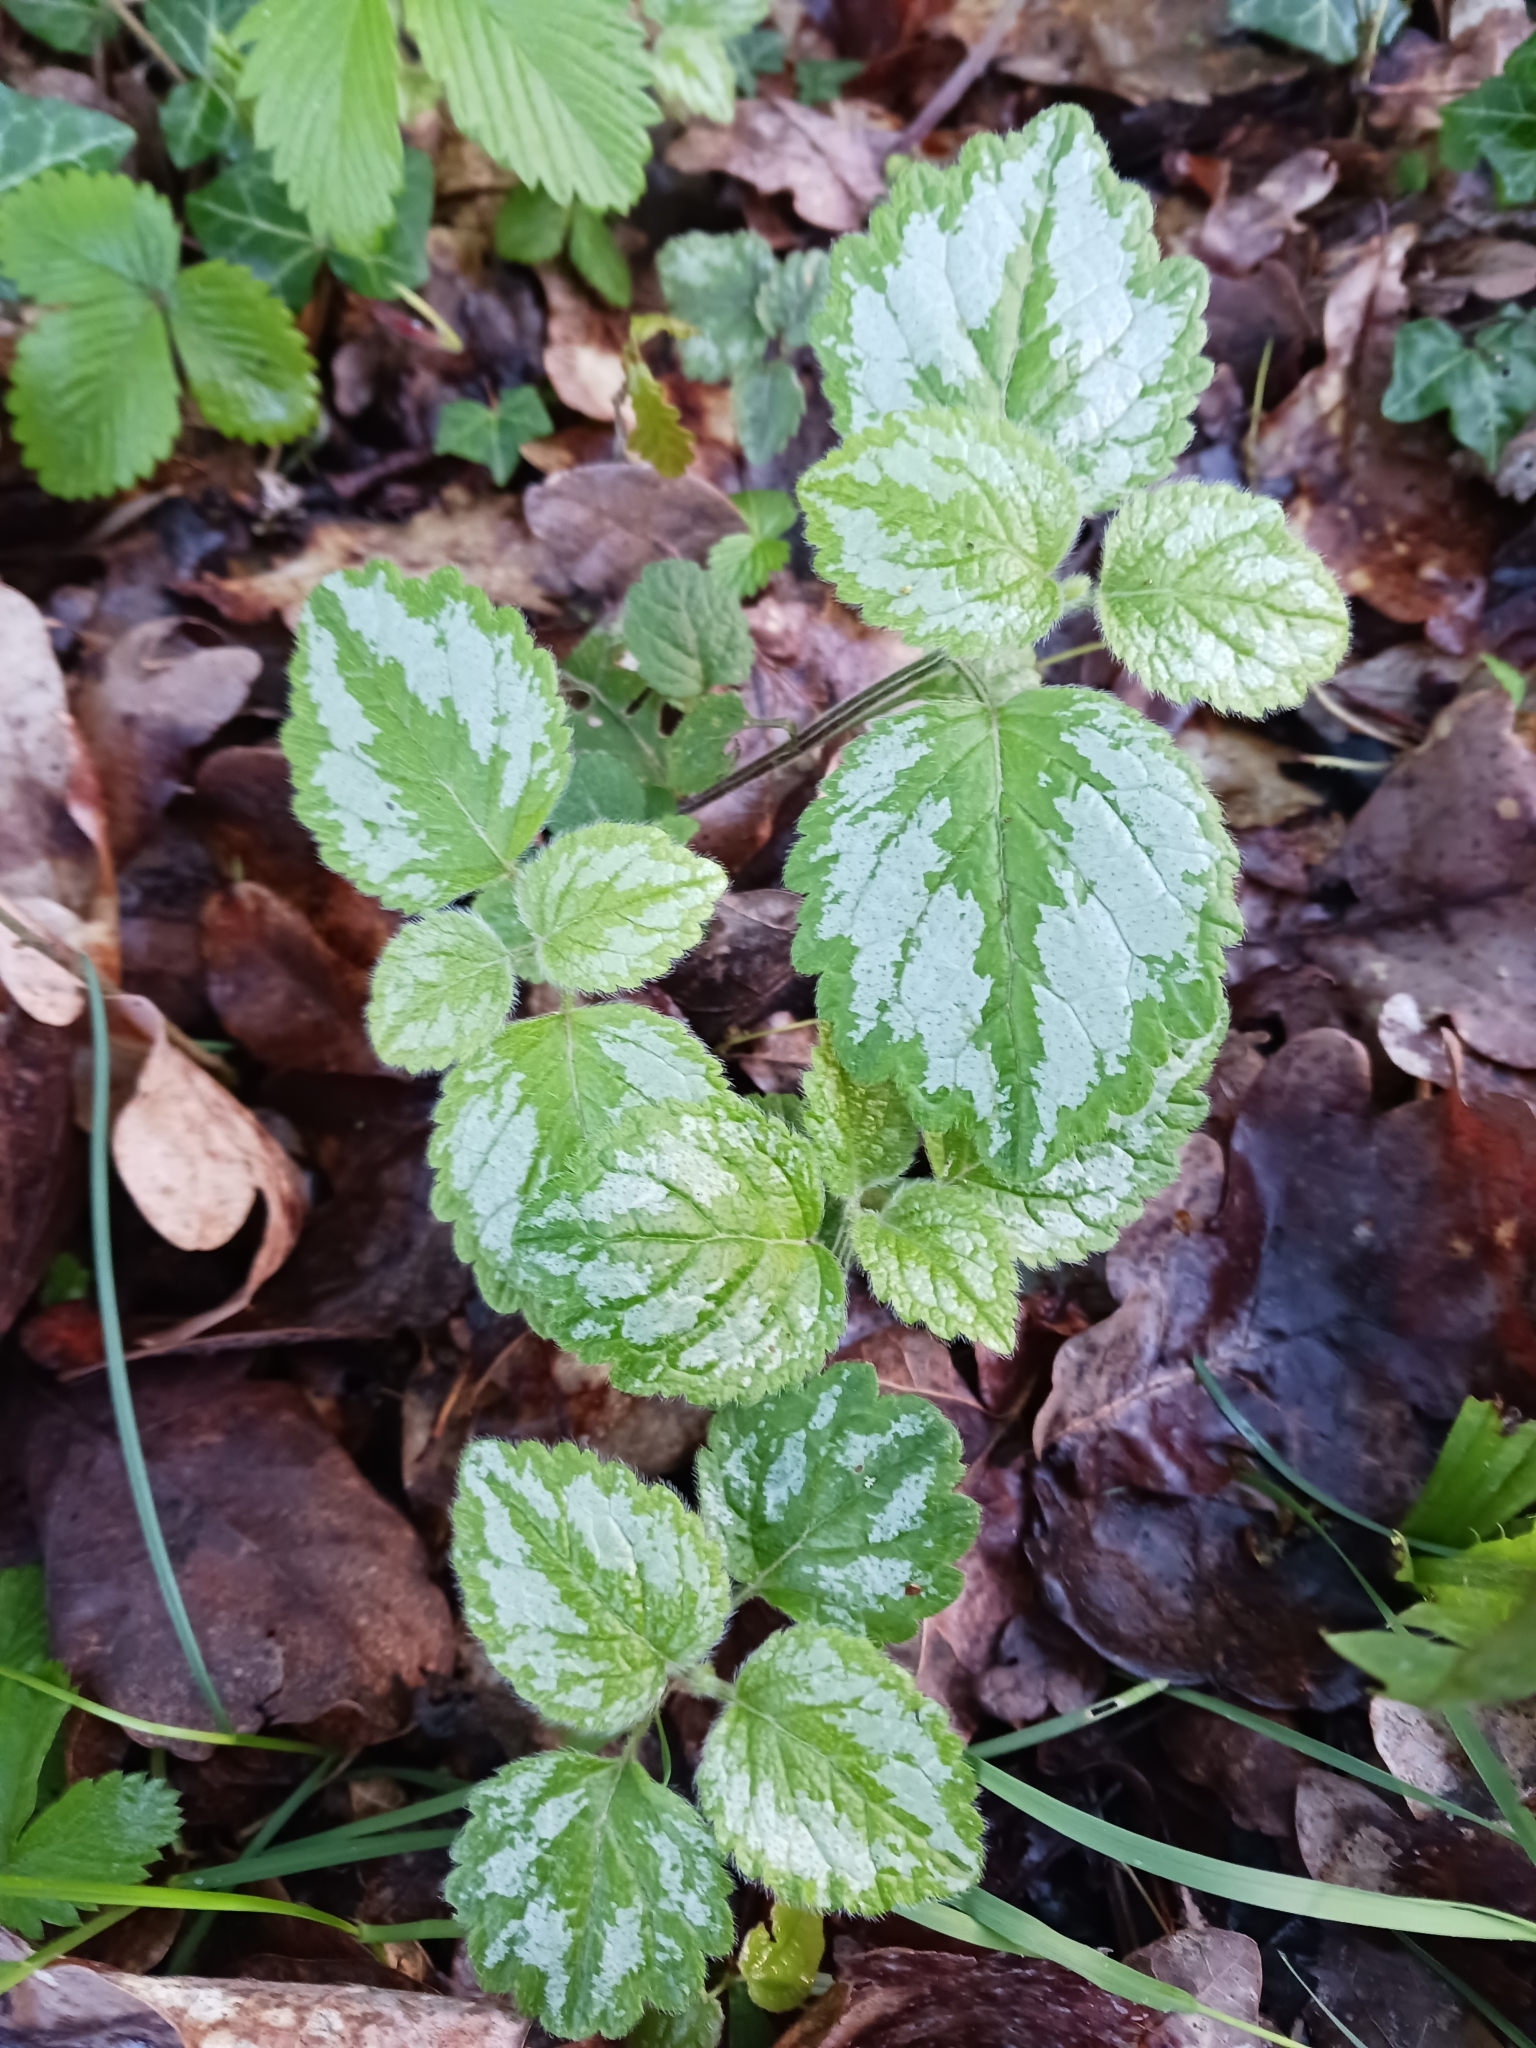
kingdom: Plantae
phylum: Tracheophyta
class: Magnoliopsida
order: Lamiales
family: Lamiaceae
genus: Lamium
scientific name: Lamium galeobdolon
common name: Yellow archangel
